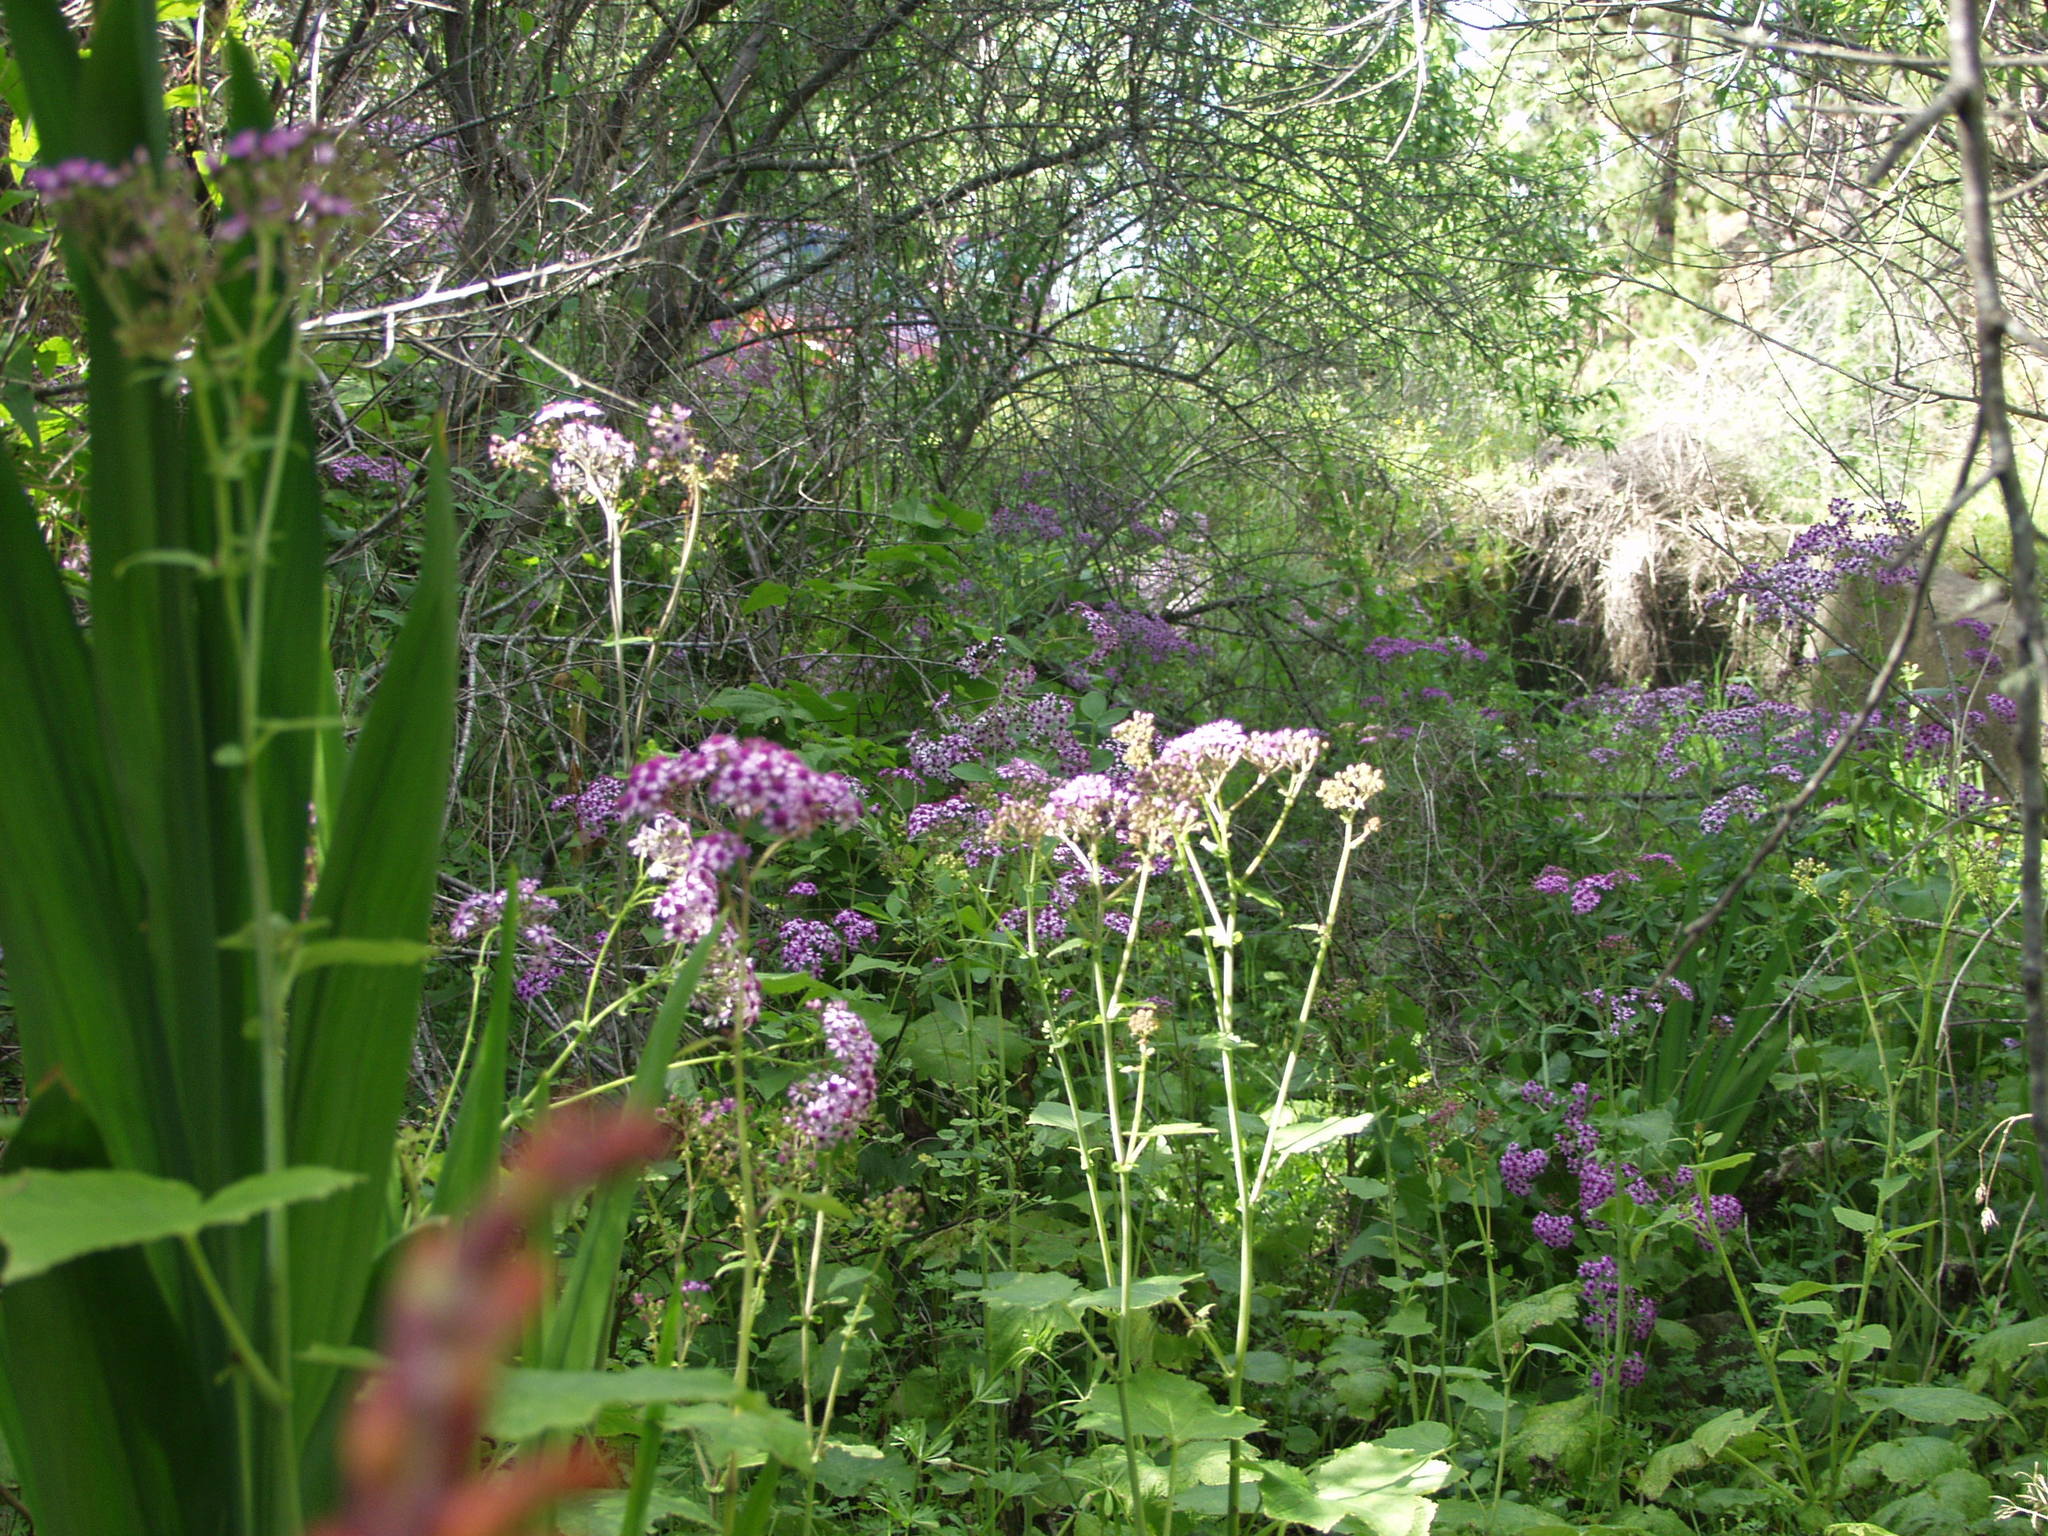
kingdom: Plantae
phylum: Tracheophyta
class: Magnoliopsida
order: Asterales
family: Asteraceae
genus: Pericallis
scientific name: Pericallis papyracea
